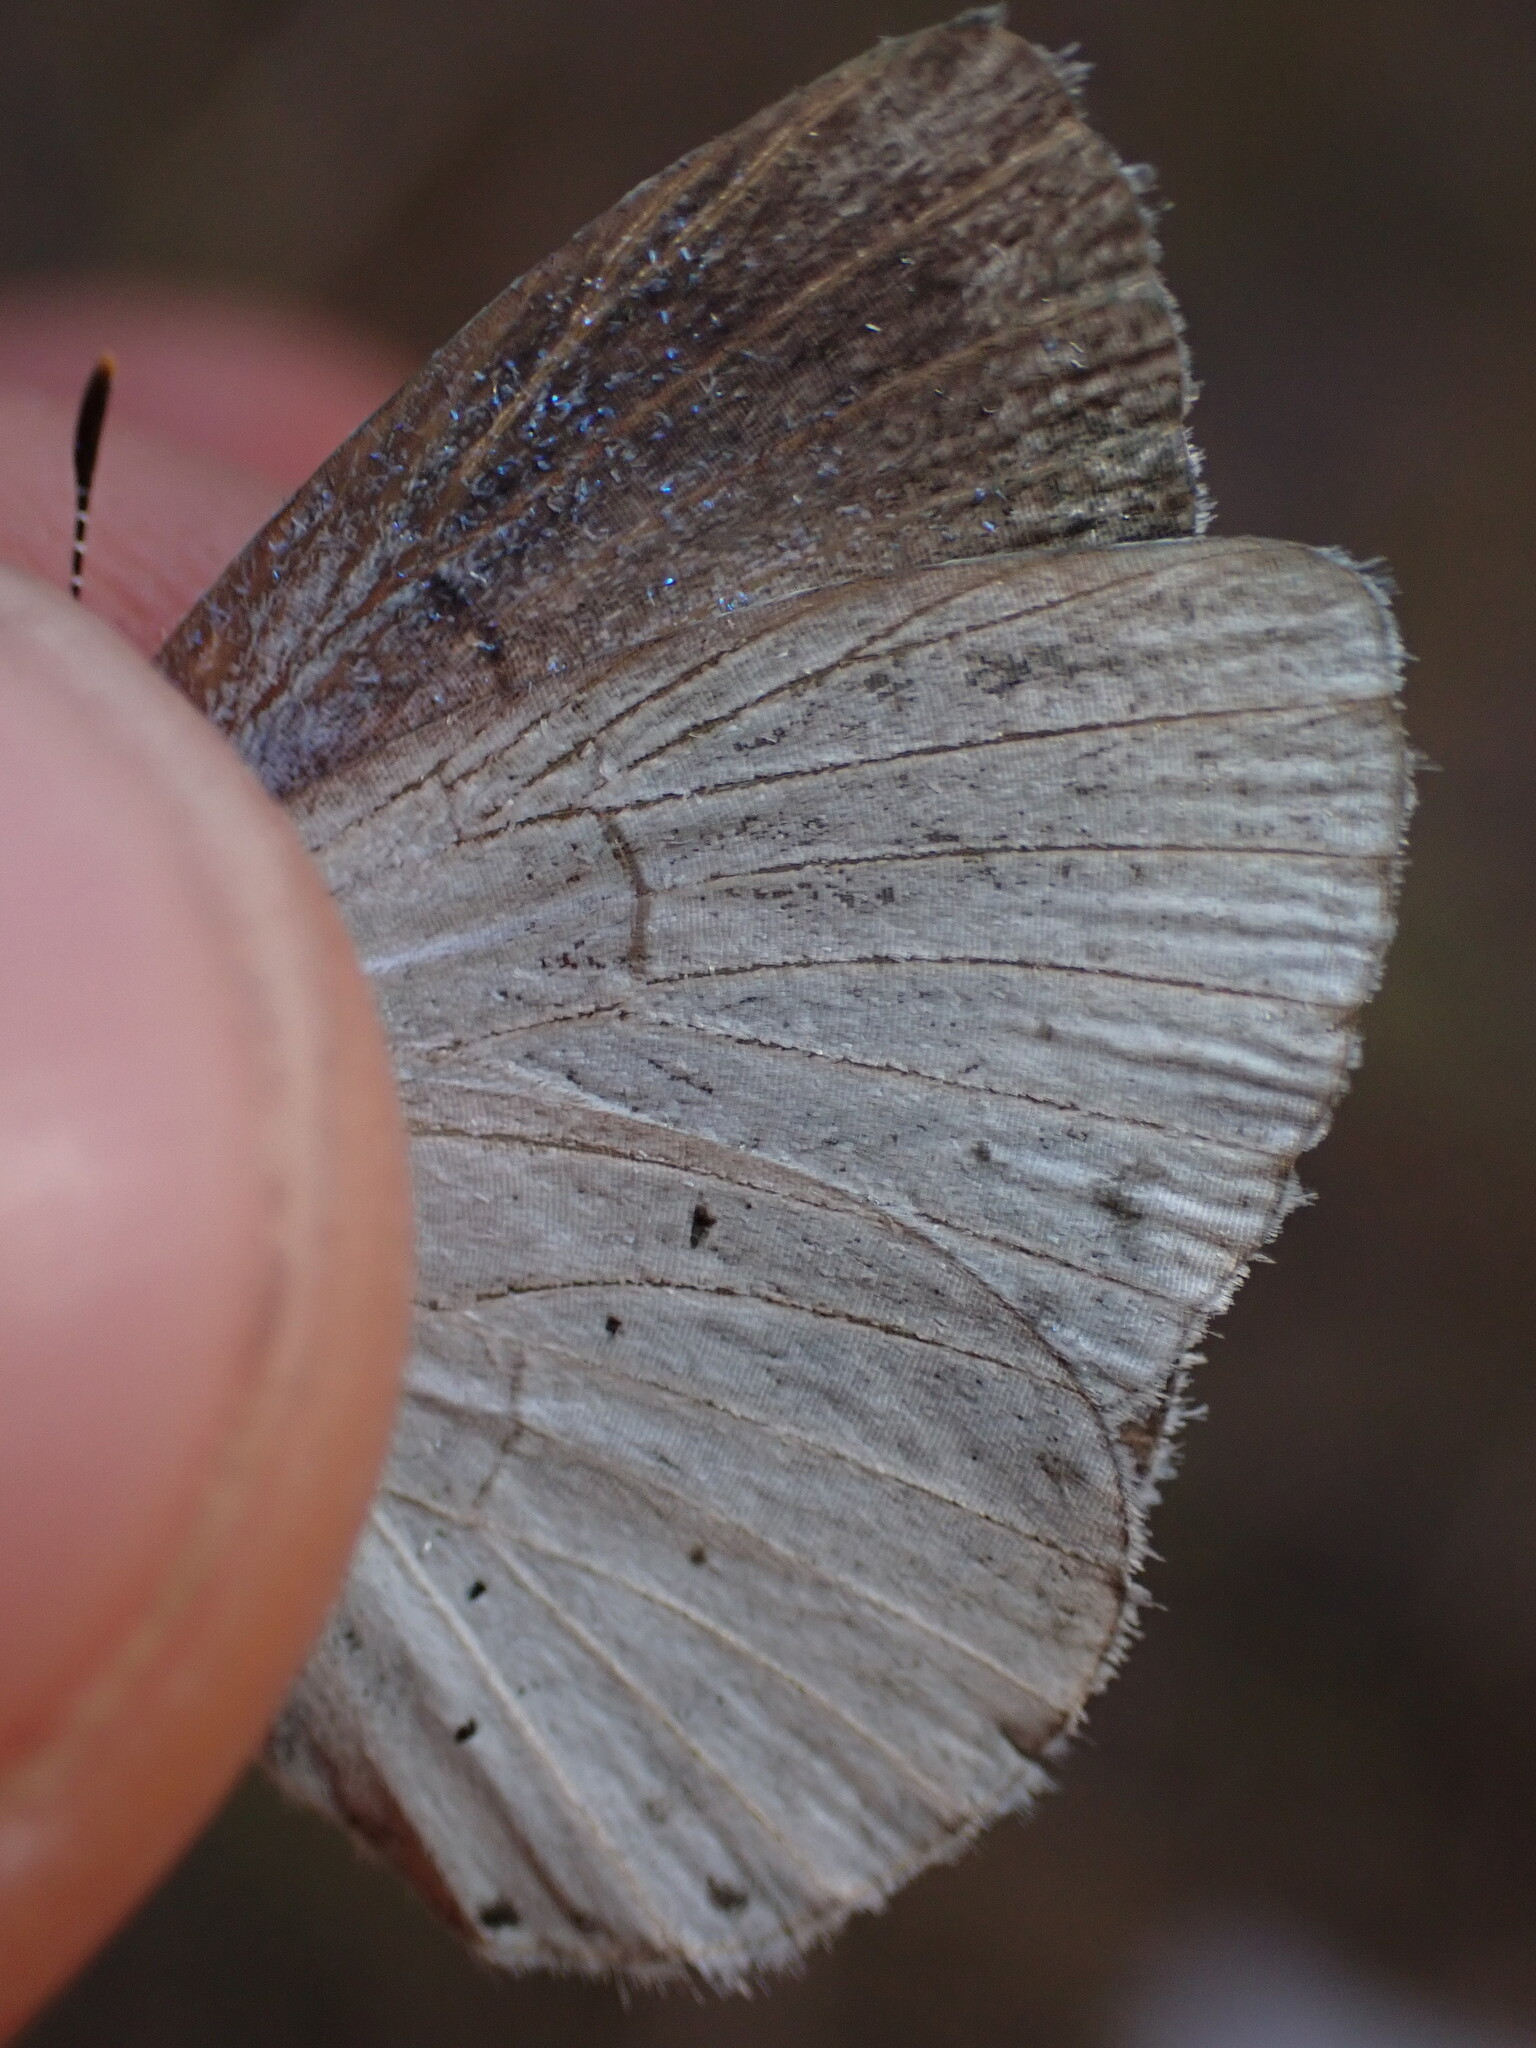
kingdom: Animalia
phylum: Arthropoda
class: Insecta
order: Lepidoptera
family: Lycaenidae
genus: Celastrina
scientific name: Celastrina argiolus
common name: Holly blue
